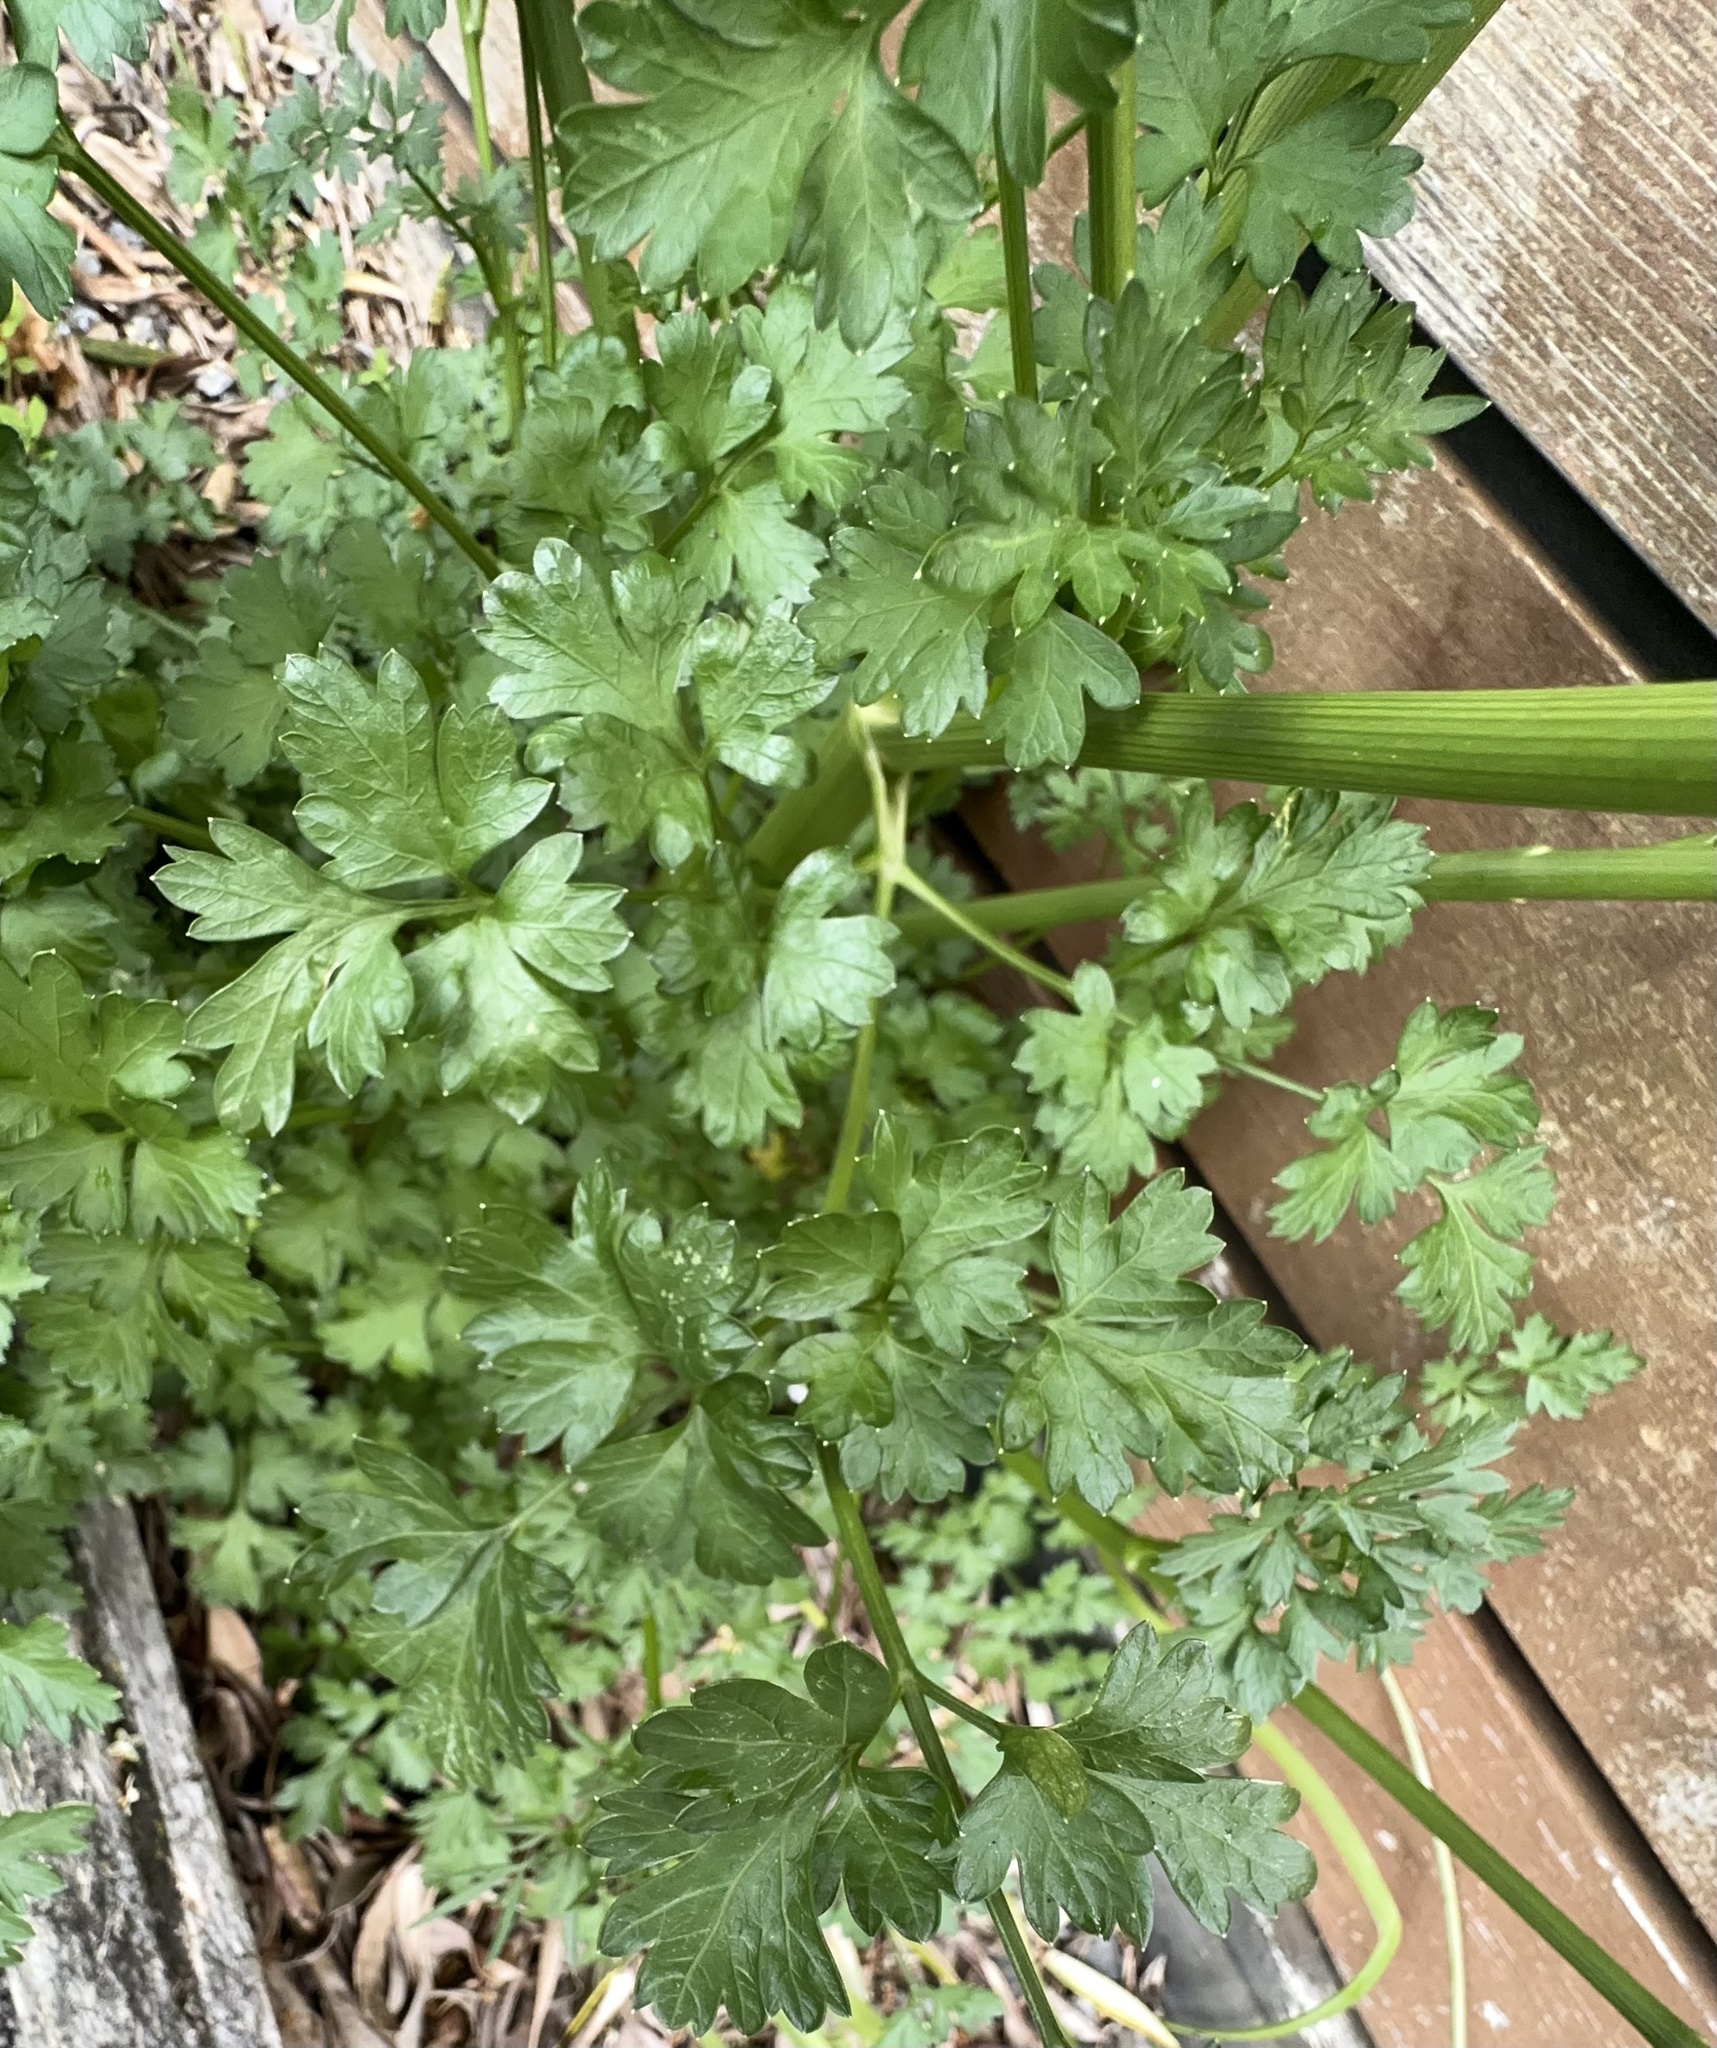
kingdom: Plantae
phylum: Tracheophyta
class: Magnoliopsida
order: Apiales
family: Apiaceae
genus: Petroselinum
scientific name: Petroselinum crispum
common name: Parsley
